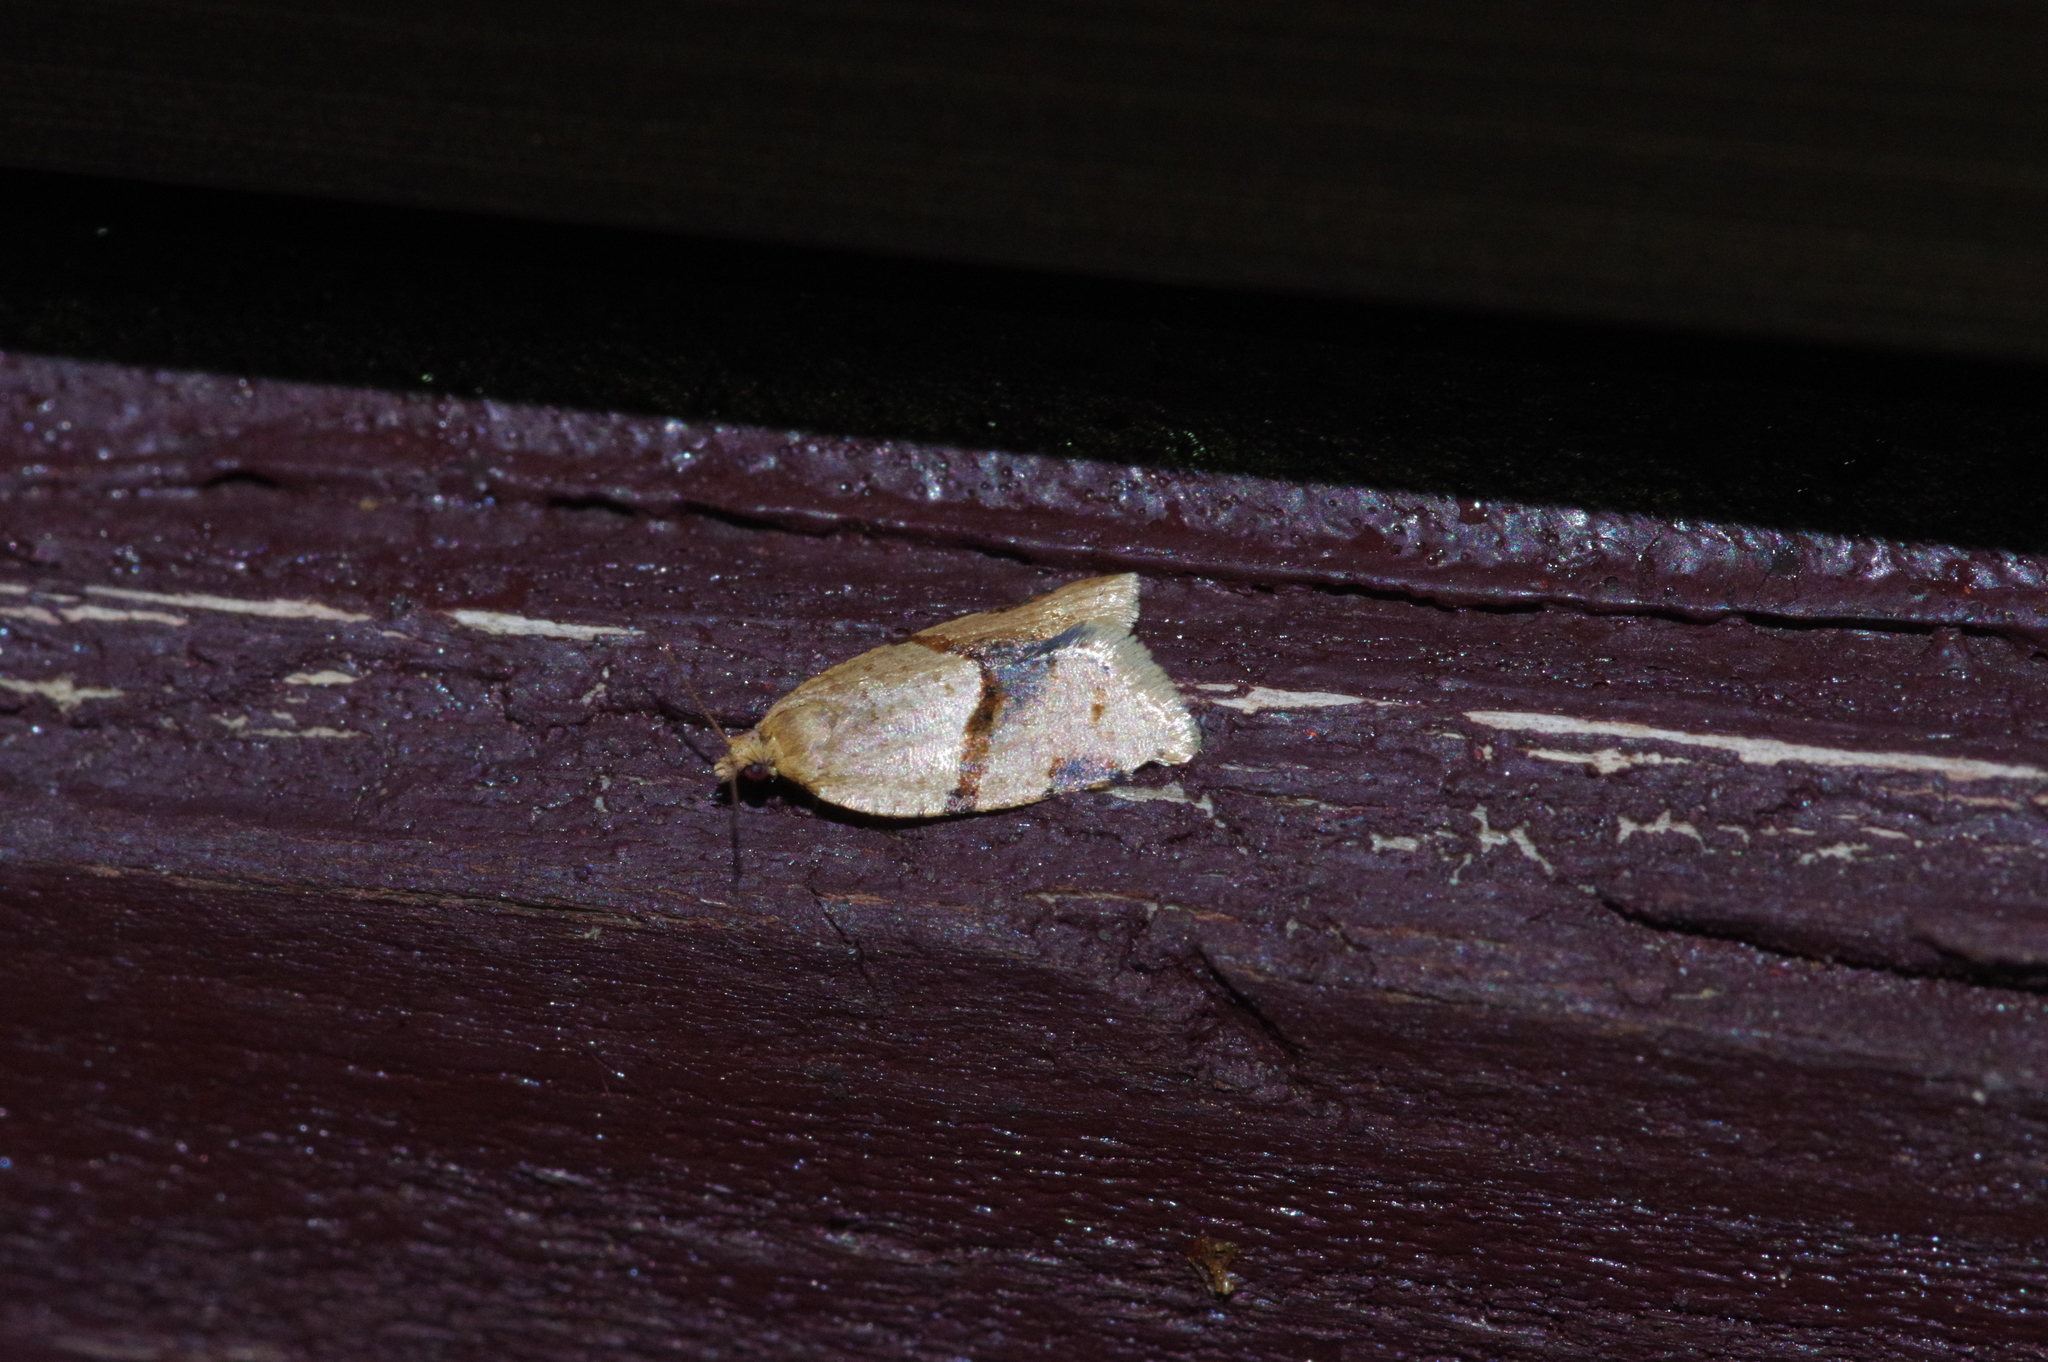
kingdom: Animalia
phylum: Arthropoda
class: Insecta
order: Lepidoptera
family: Tortricidae
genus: Diplocalyptis
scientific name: Diplocalyptis congruentana
